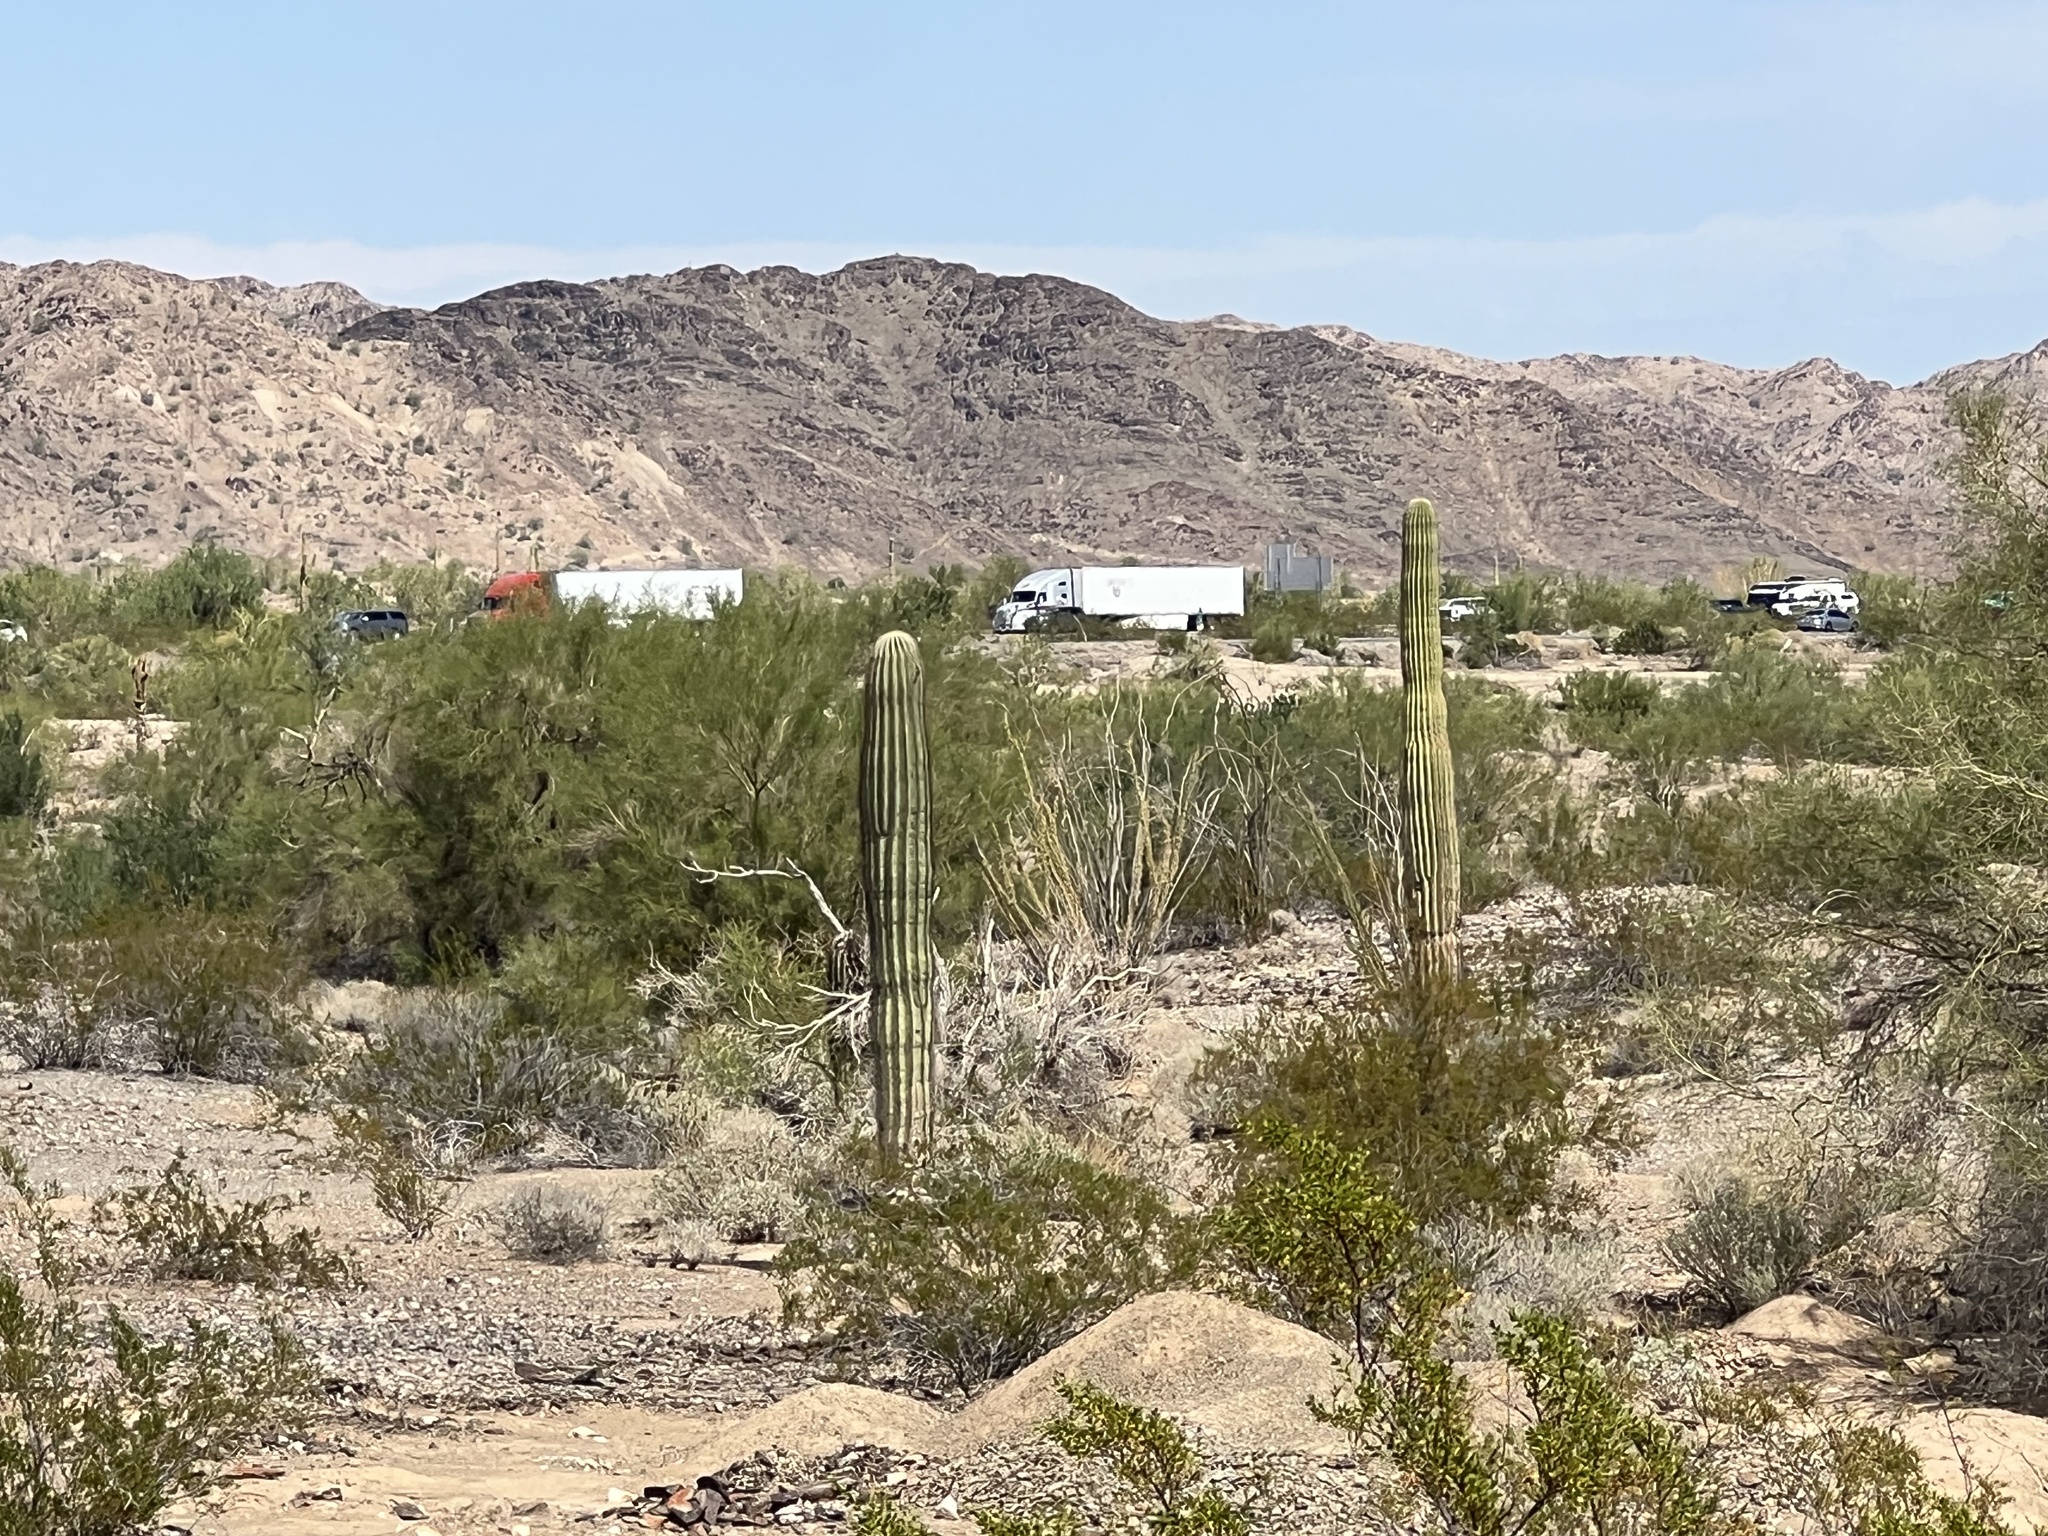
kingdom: Plantae
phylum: Tracheophyta
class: Magnoliopsida
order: Caryophyllales
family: Cactaceae
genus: Carnegiea
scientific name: Carnegiea gigantea
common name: Saguaro
